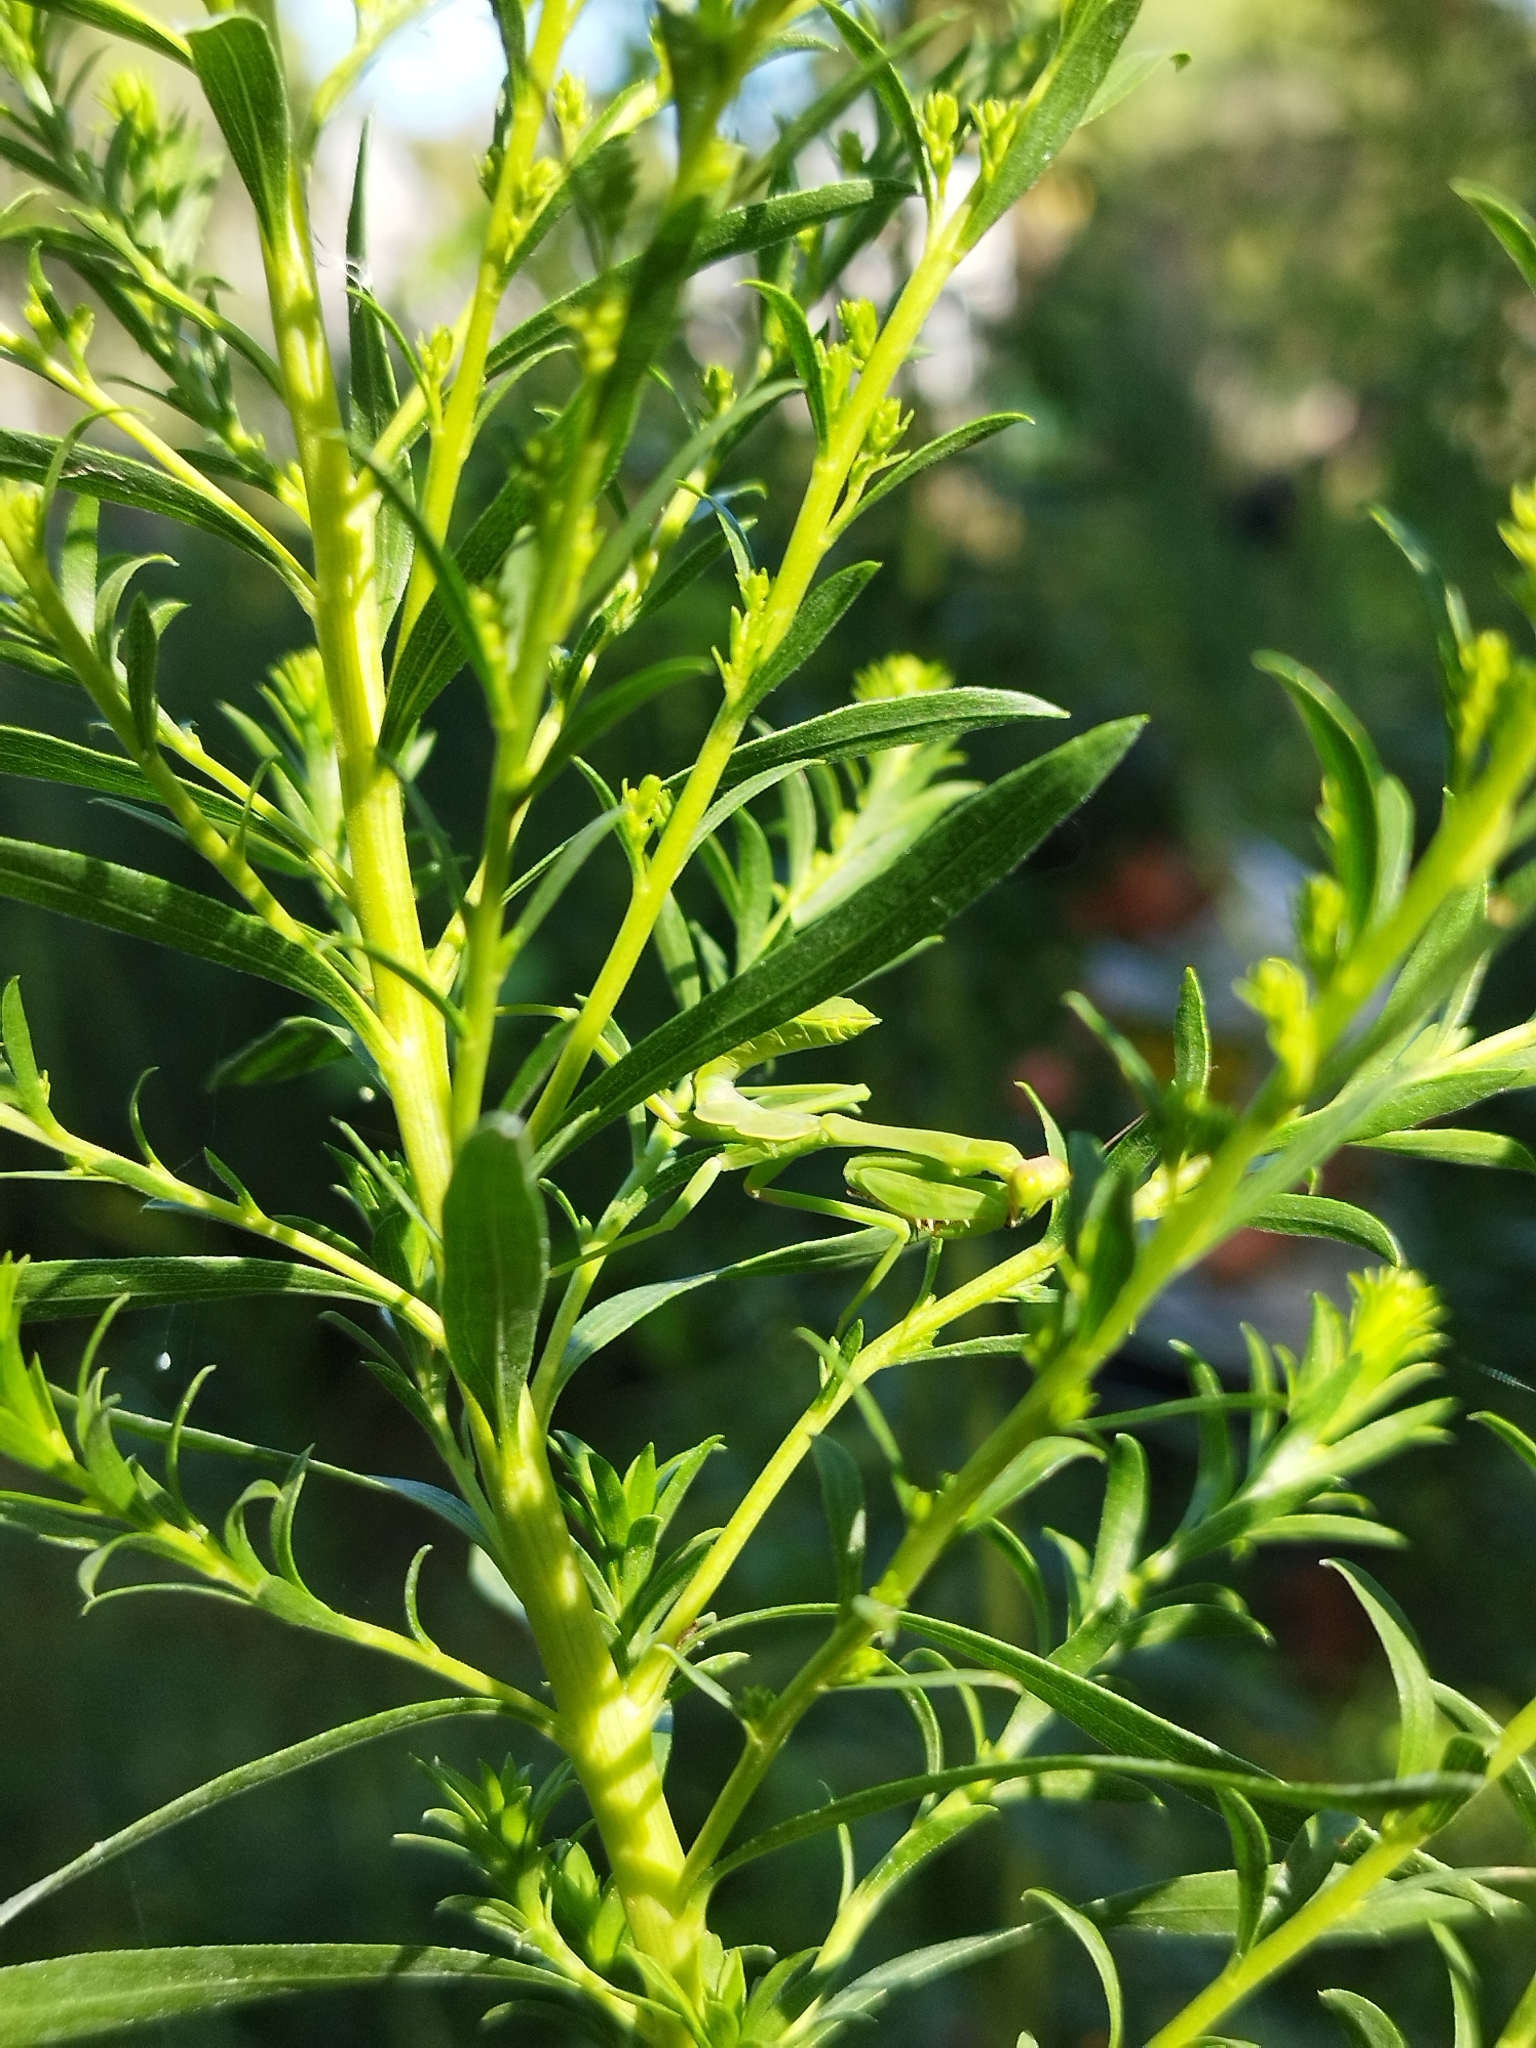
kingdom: Animalia
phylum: Arthropoda
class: Insecta
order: Mantodea
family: Mantidae
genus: Stagmatoptera
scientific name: Stagmatoptera hyaloptera
